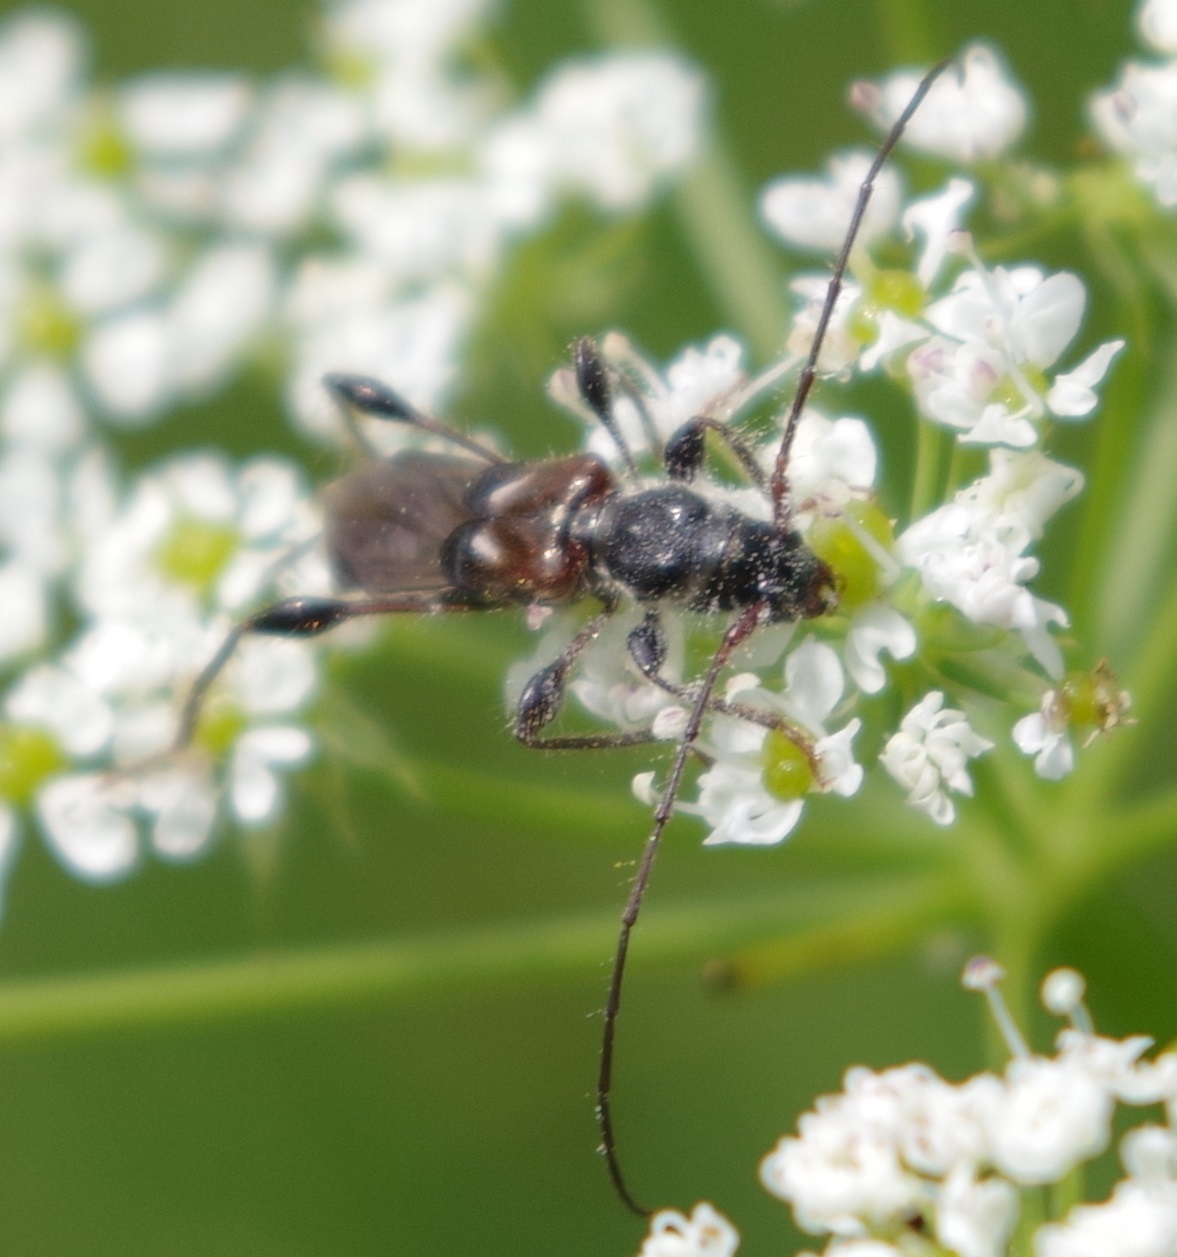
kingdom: Animalia
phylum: Arthropoda
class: Insecta
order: Coleoptera
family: Cerambycidae
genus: Molorchus
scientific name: Molorchus minor
